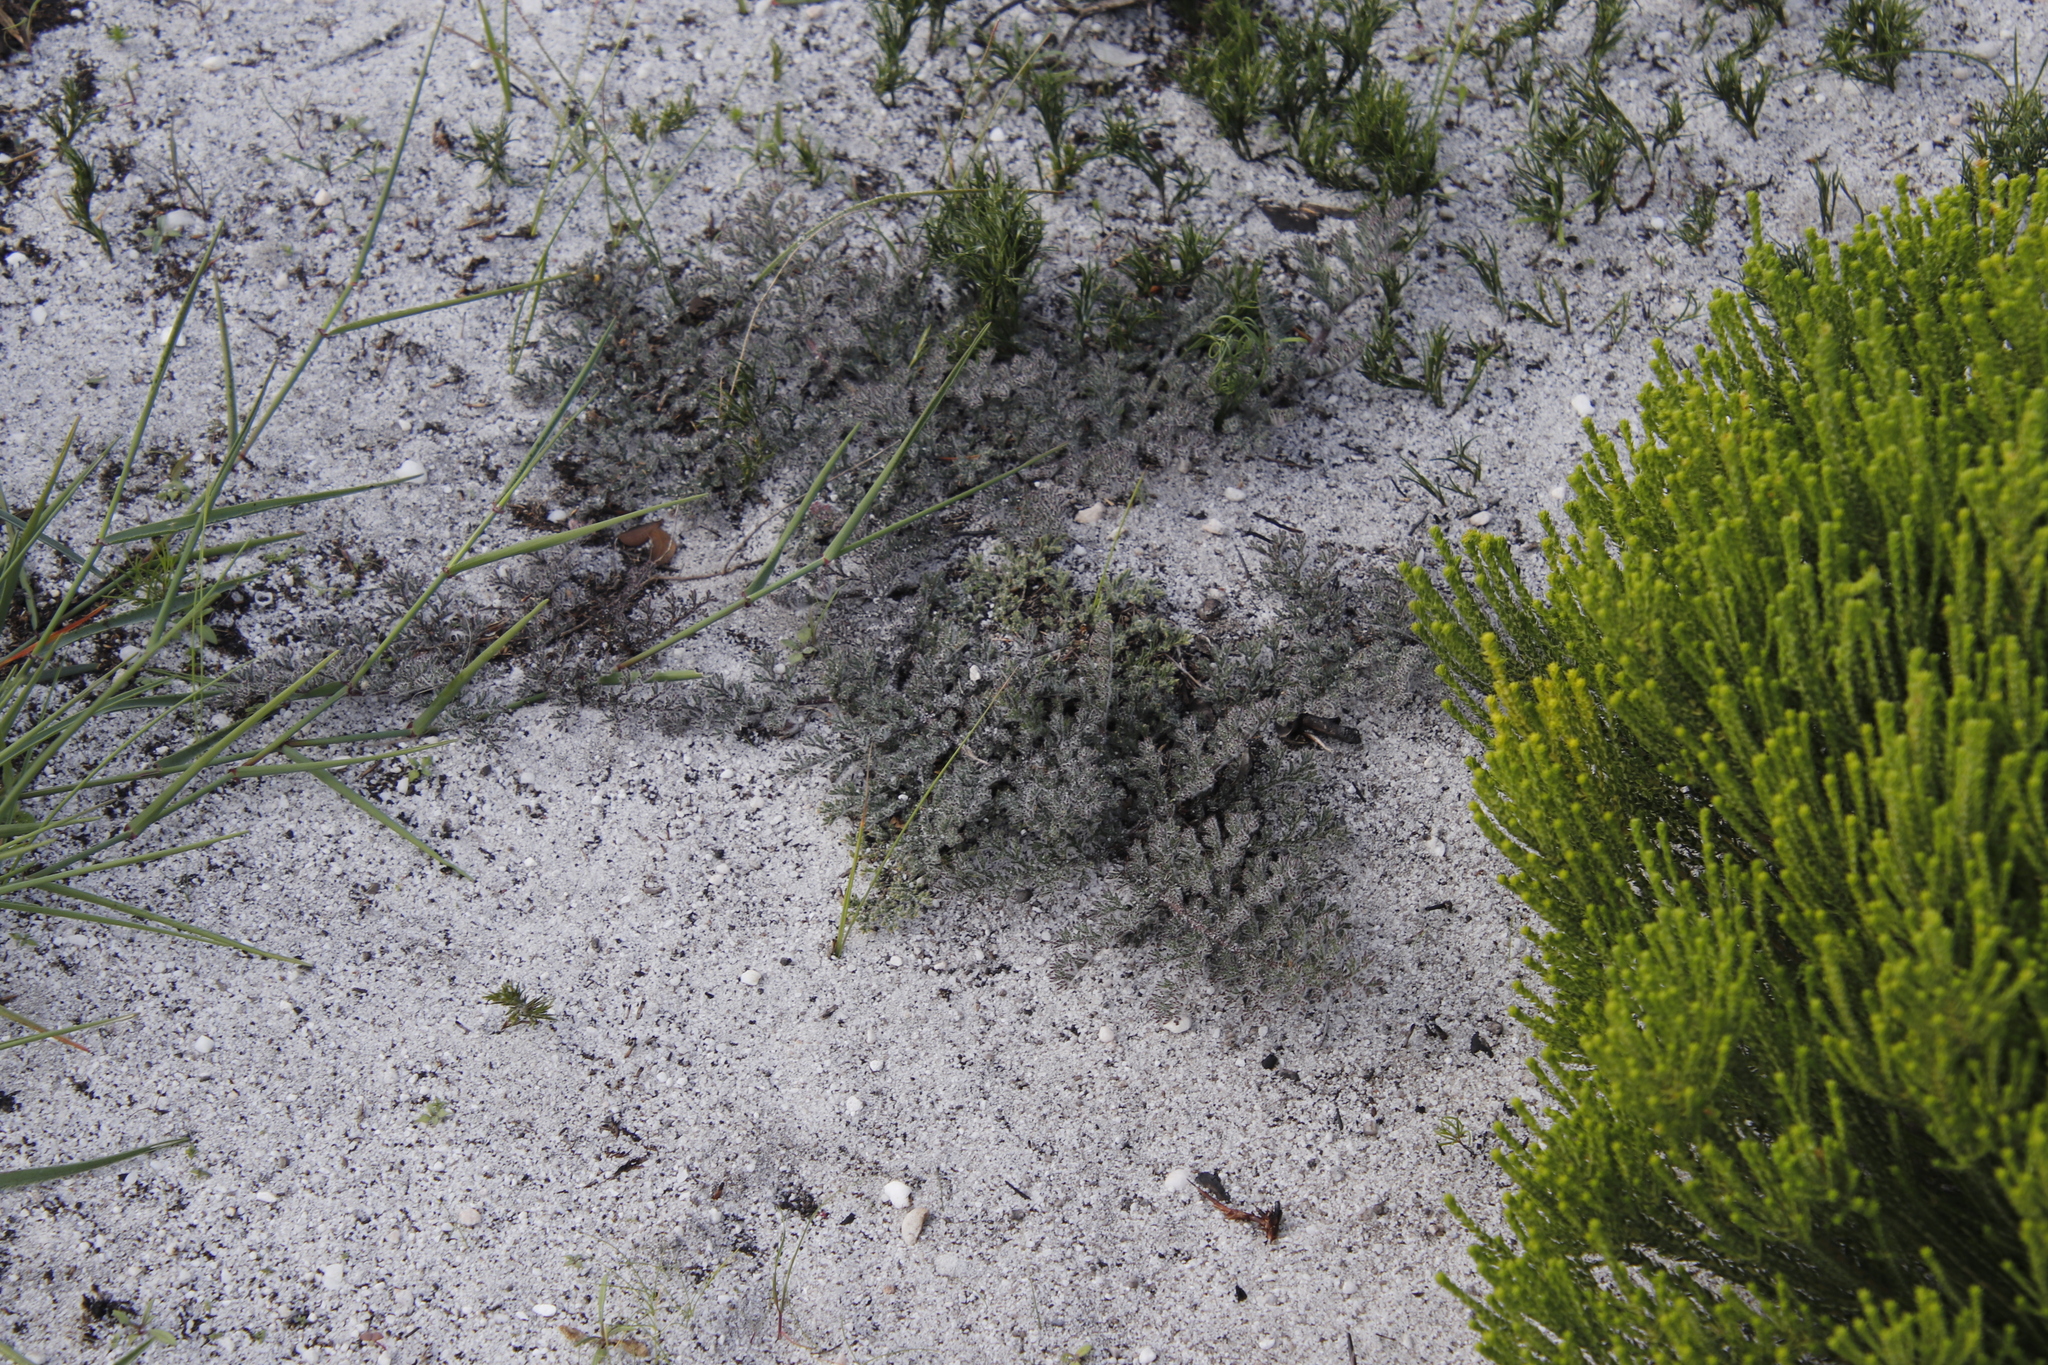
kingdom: Plantae
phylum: Tracheophyta
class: Magnoliopsida
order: Geraniales
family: Geraniaceae
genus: Pelargonium
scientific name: Pelargonium triste
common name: Night-scent pelargonium
